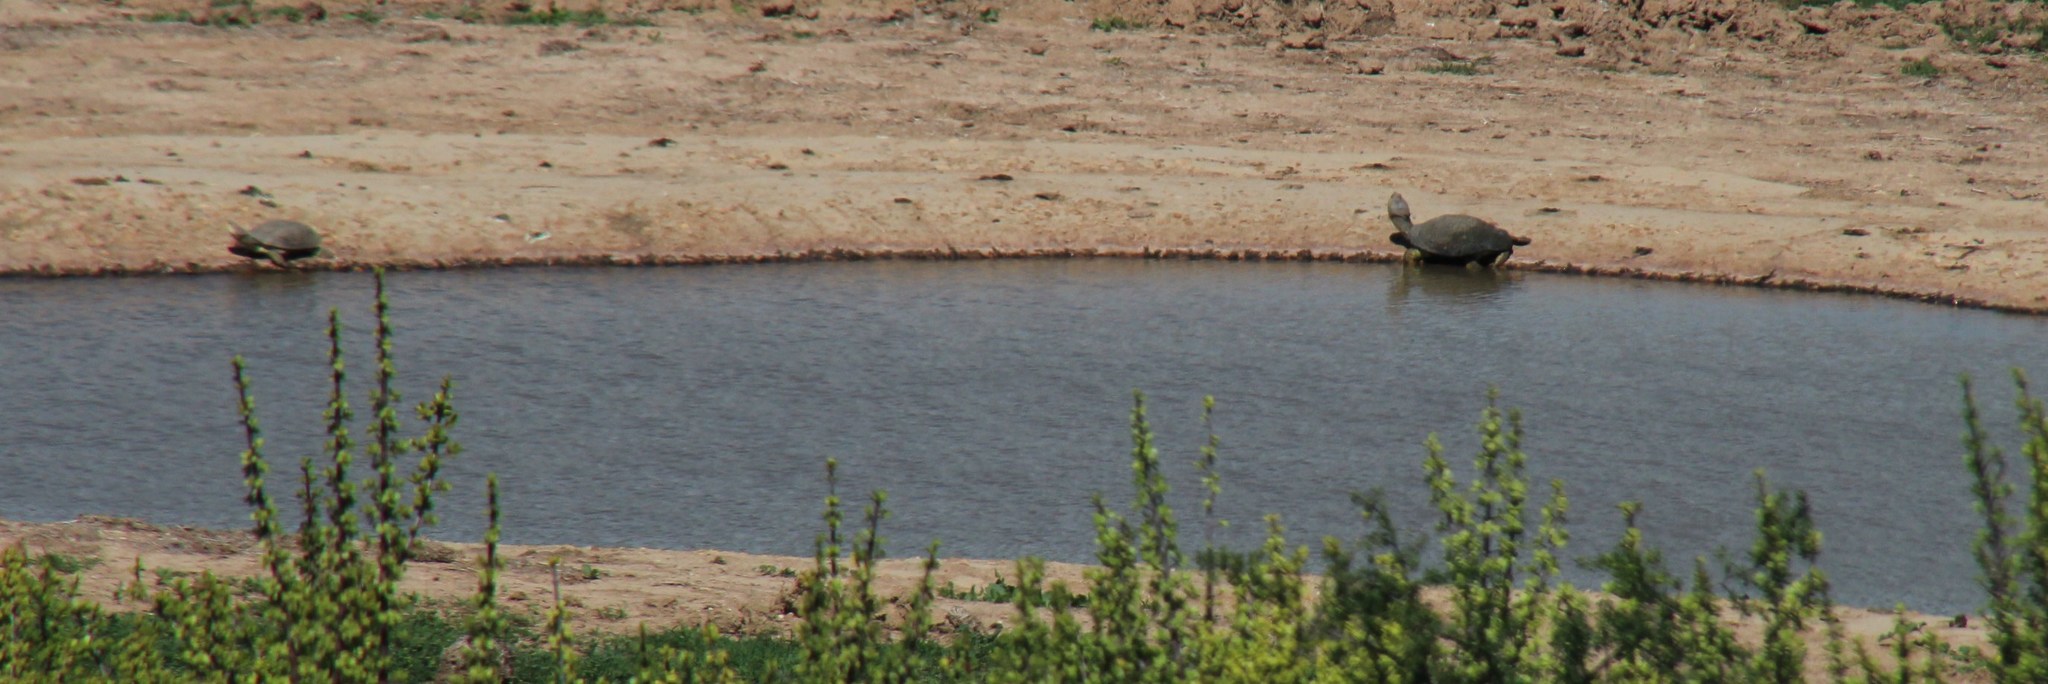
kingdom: Animalia
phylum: Chordata
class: Testudines
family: Pelomedusidae
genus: Pelomedusa
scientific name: Pelomedusa galeata
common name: South african helmeted terrapin
